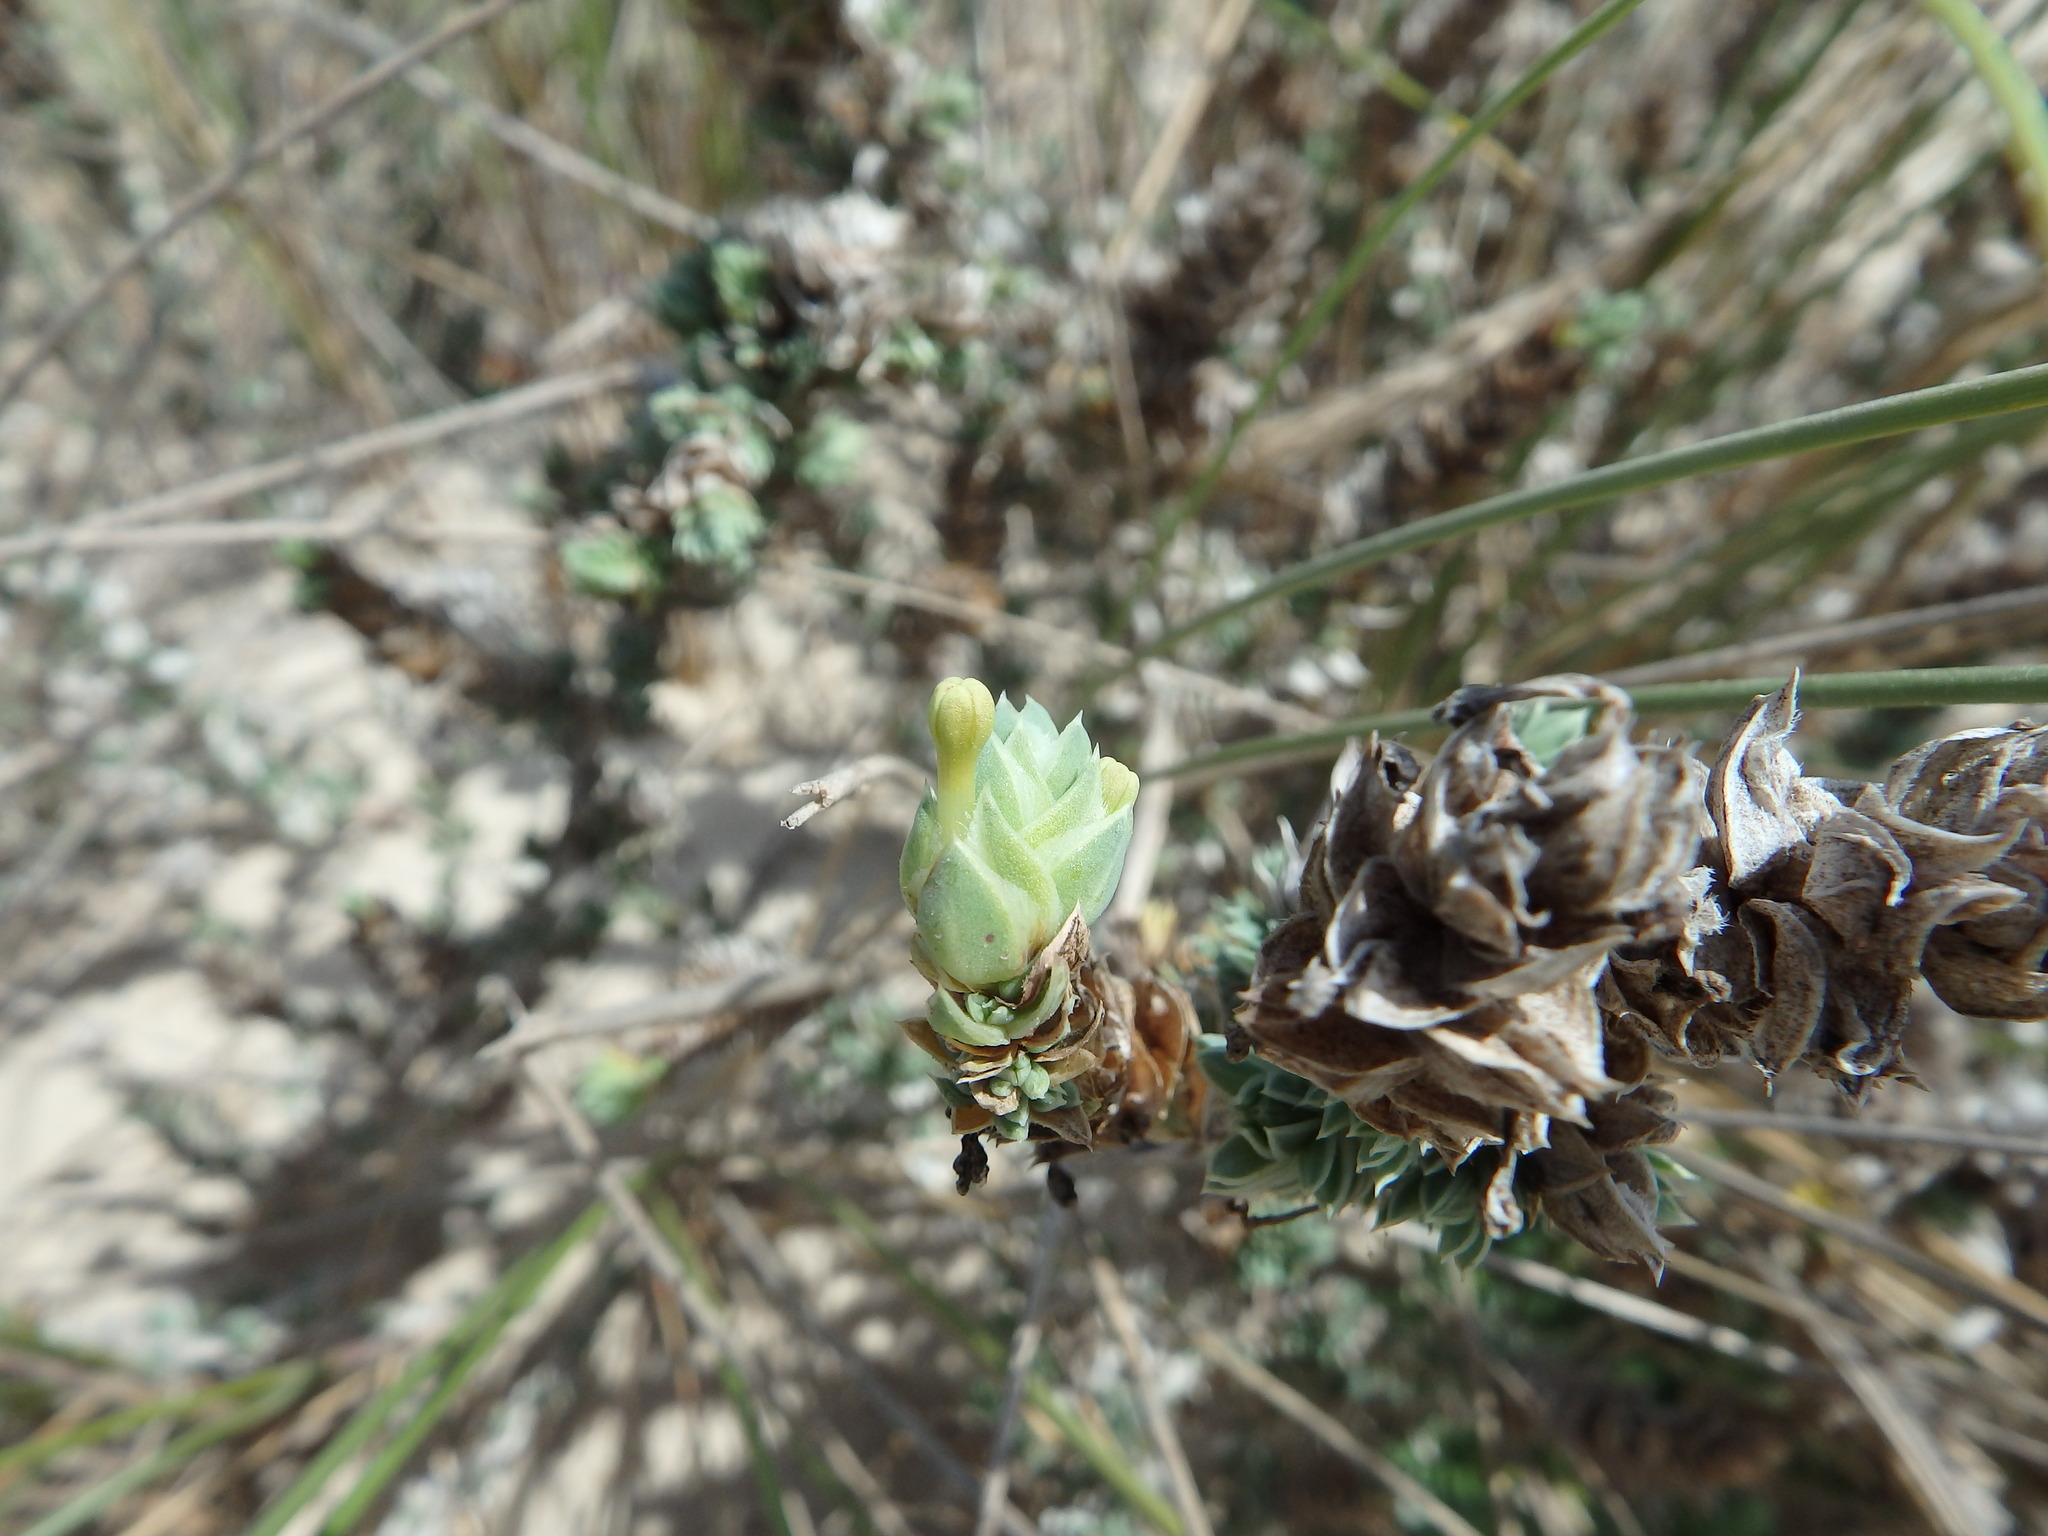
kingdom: Plantae
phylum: Tracheophyta
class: Magnoliopsida
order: Gentianales
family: Rubiaceae
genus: Crucianella
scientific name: Crucianella maritima
